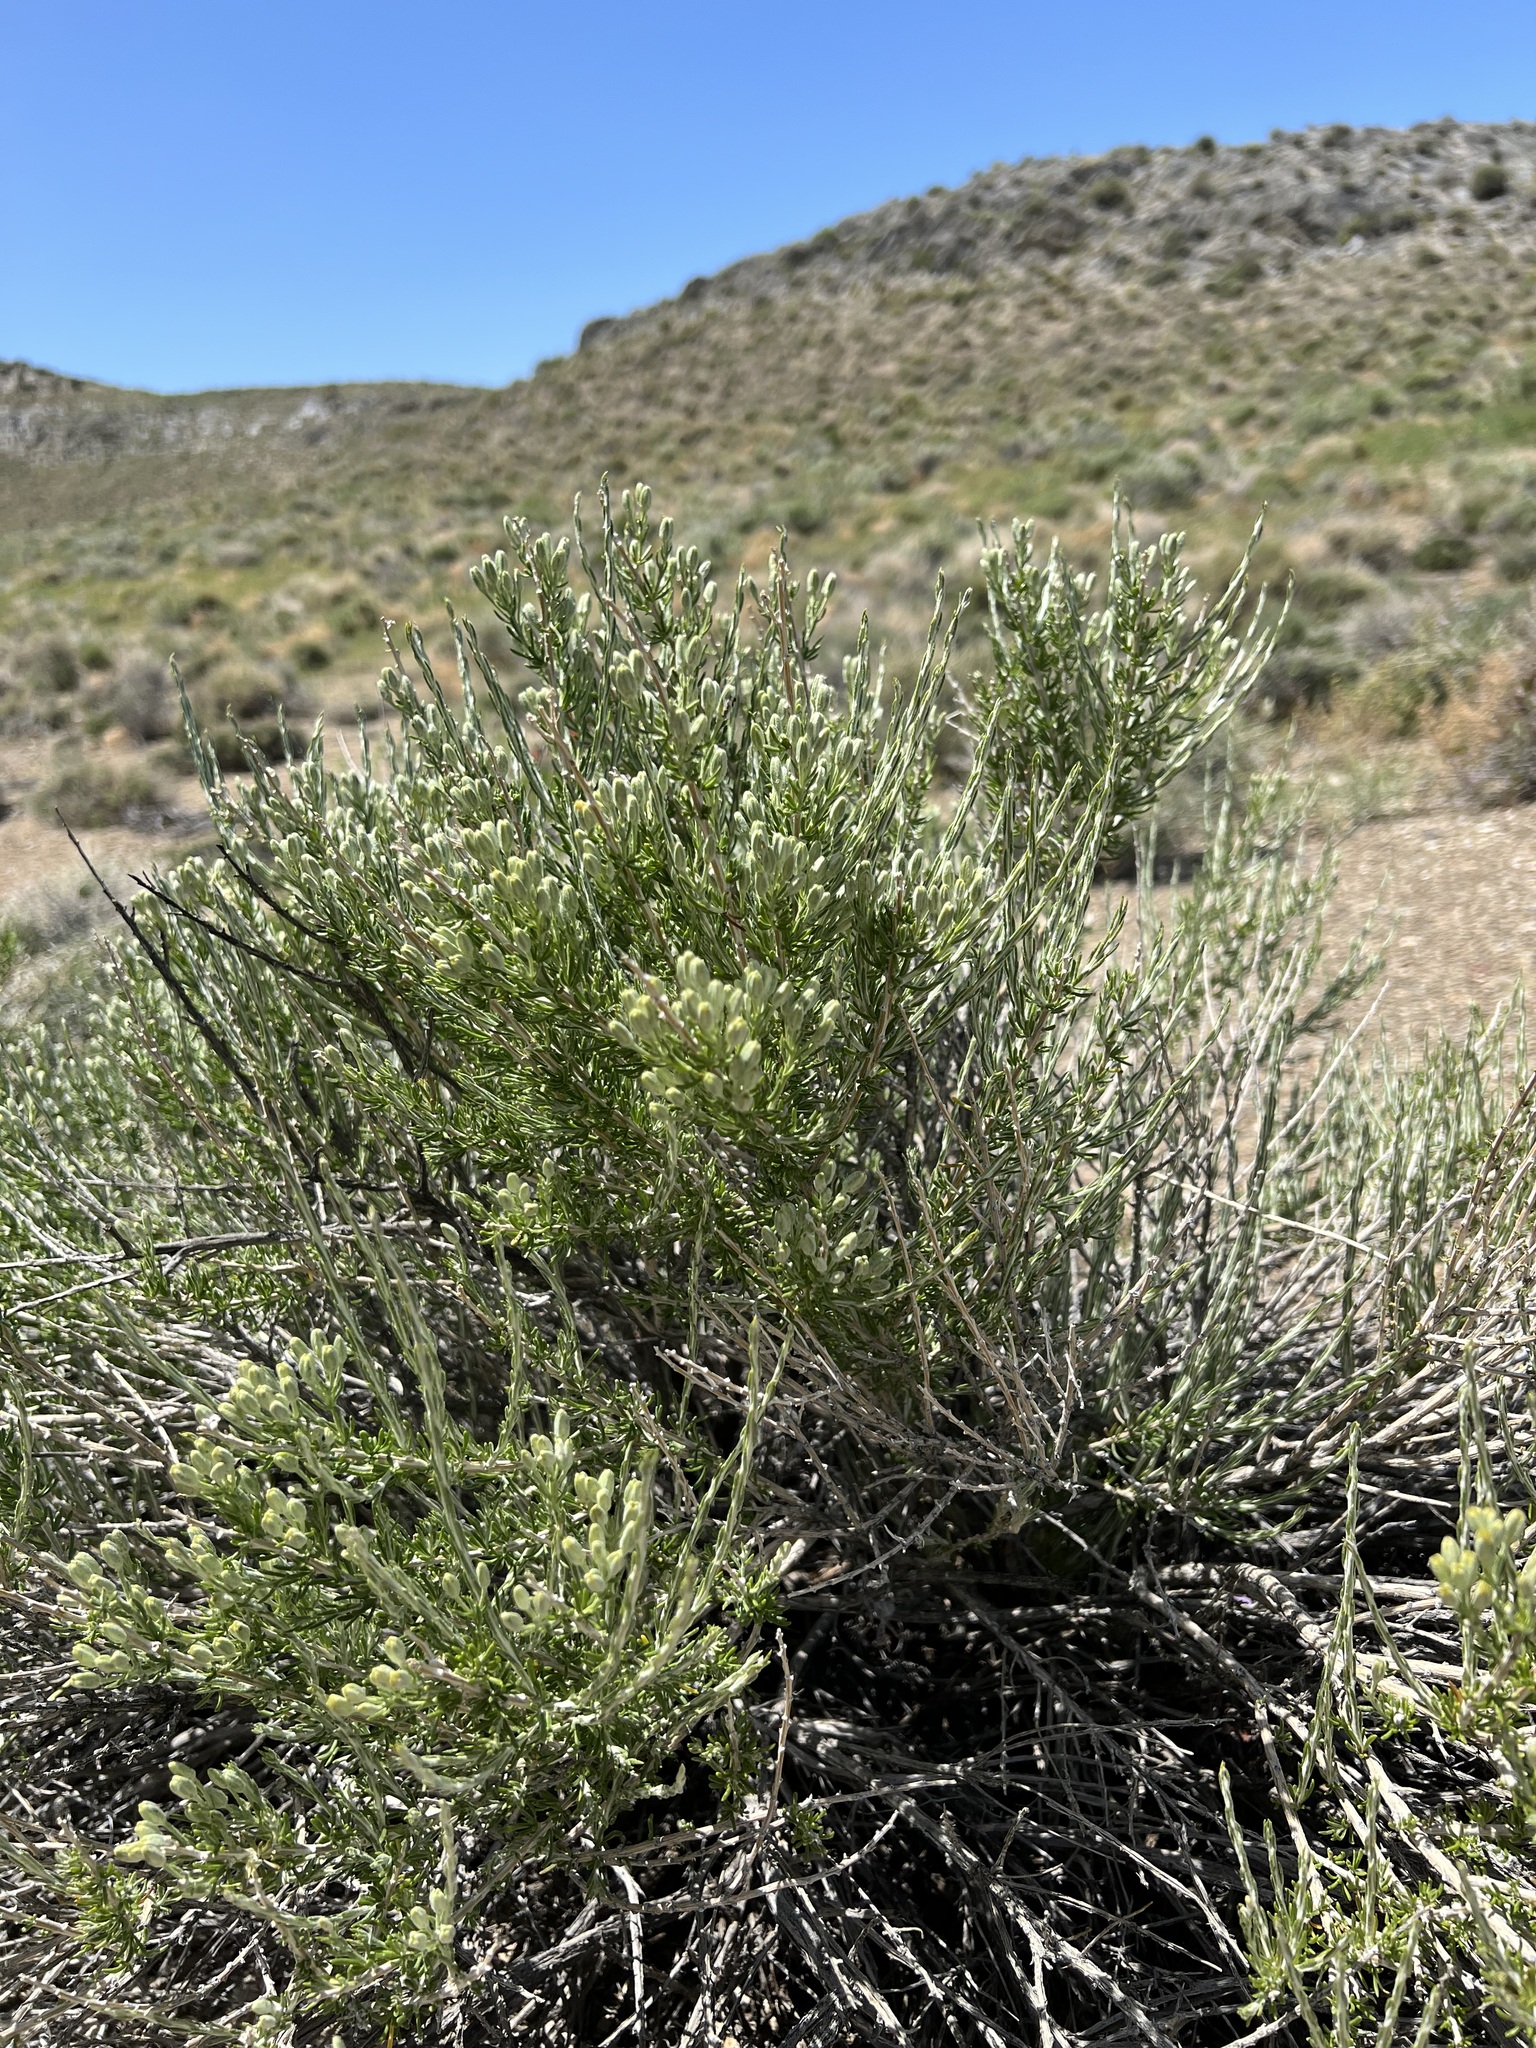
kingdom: Plantae
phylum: Tracheophyta
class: Magnoliopsida
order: Asterales
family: Asteraceae
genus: Tetradymia
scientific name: Tetradymia glabrata
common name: Smooth tetradymia
